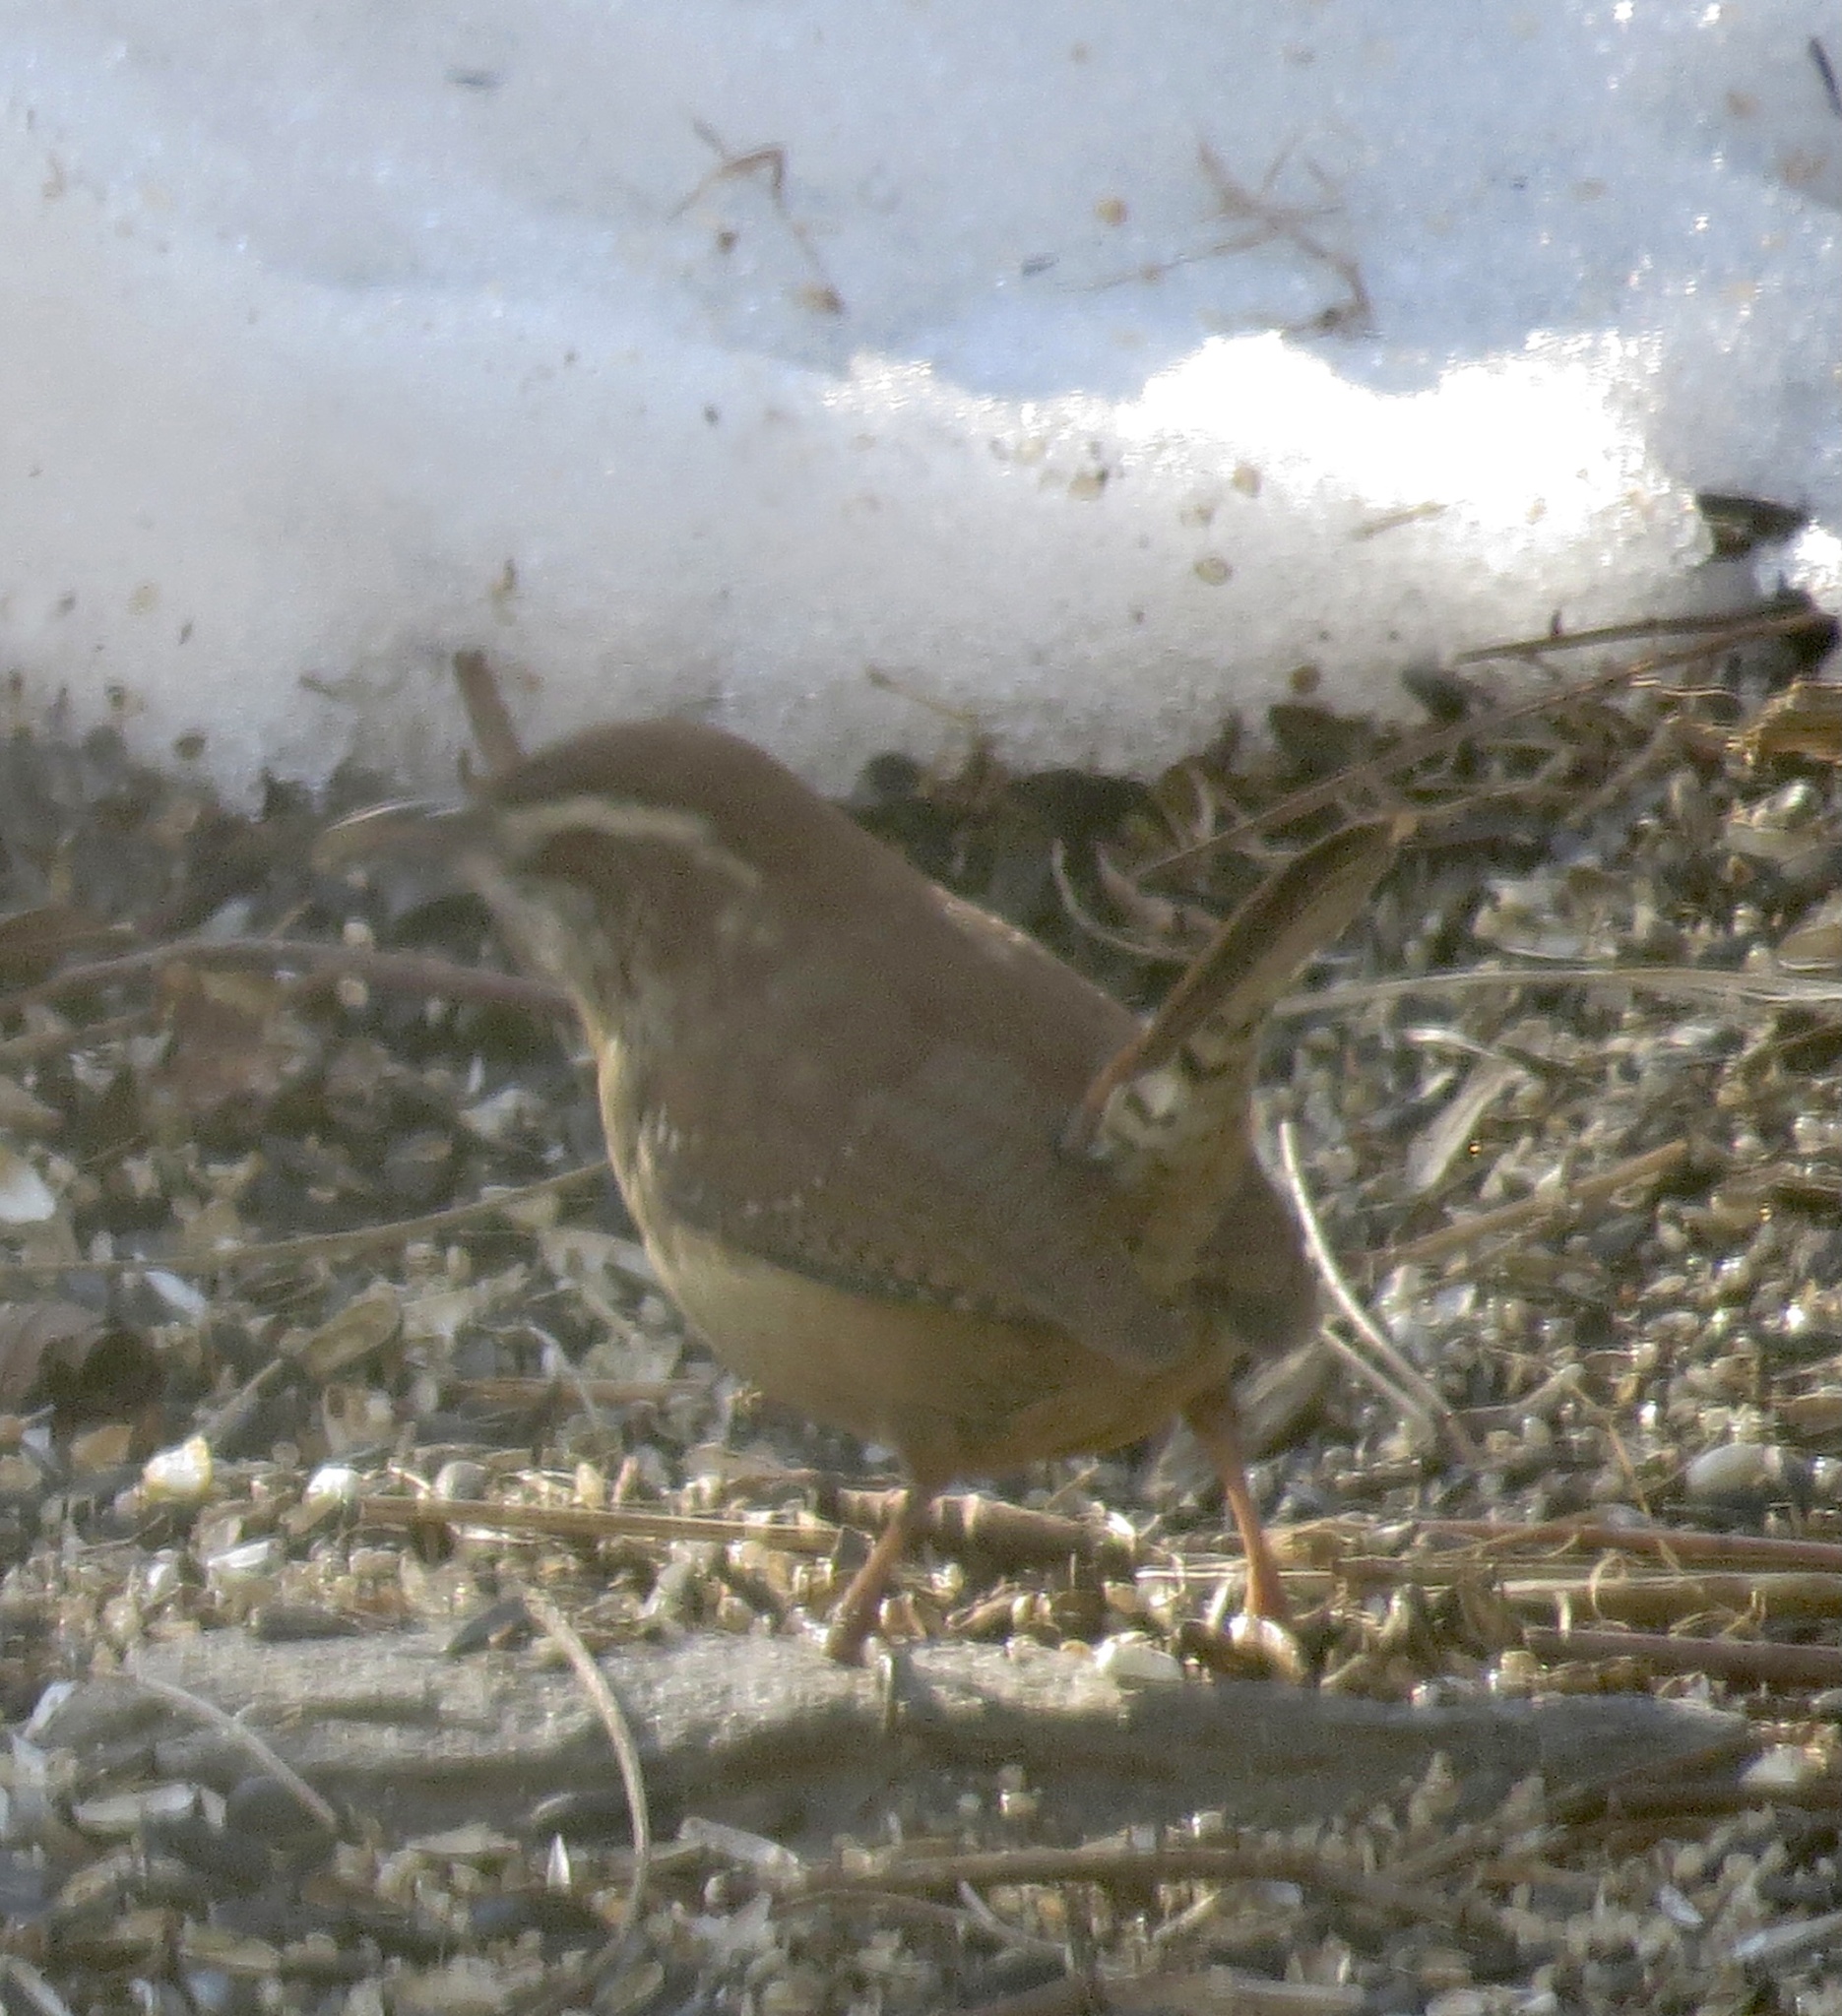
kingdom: Animalia
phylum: Chordata
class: Aves
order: Passeriformes
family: Troglodytidae
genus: Thryothorus
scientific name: Thryothorus ludovicianus
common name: Carolina wren
